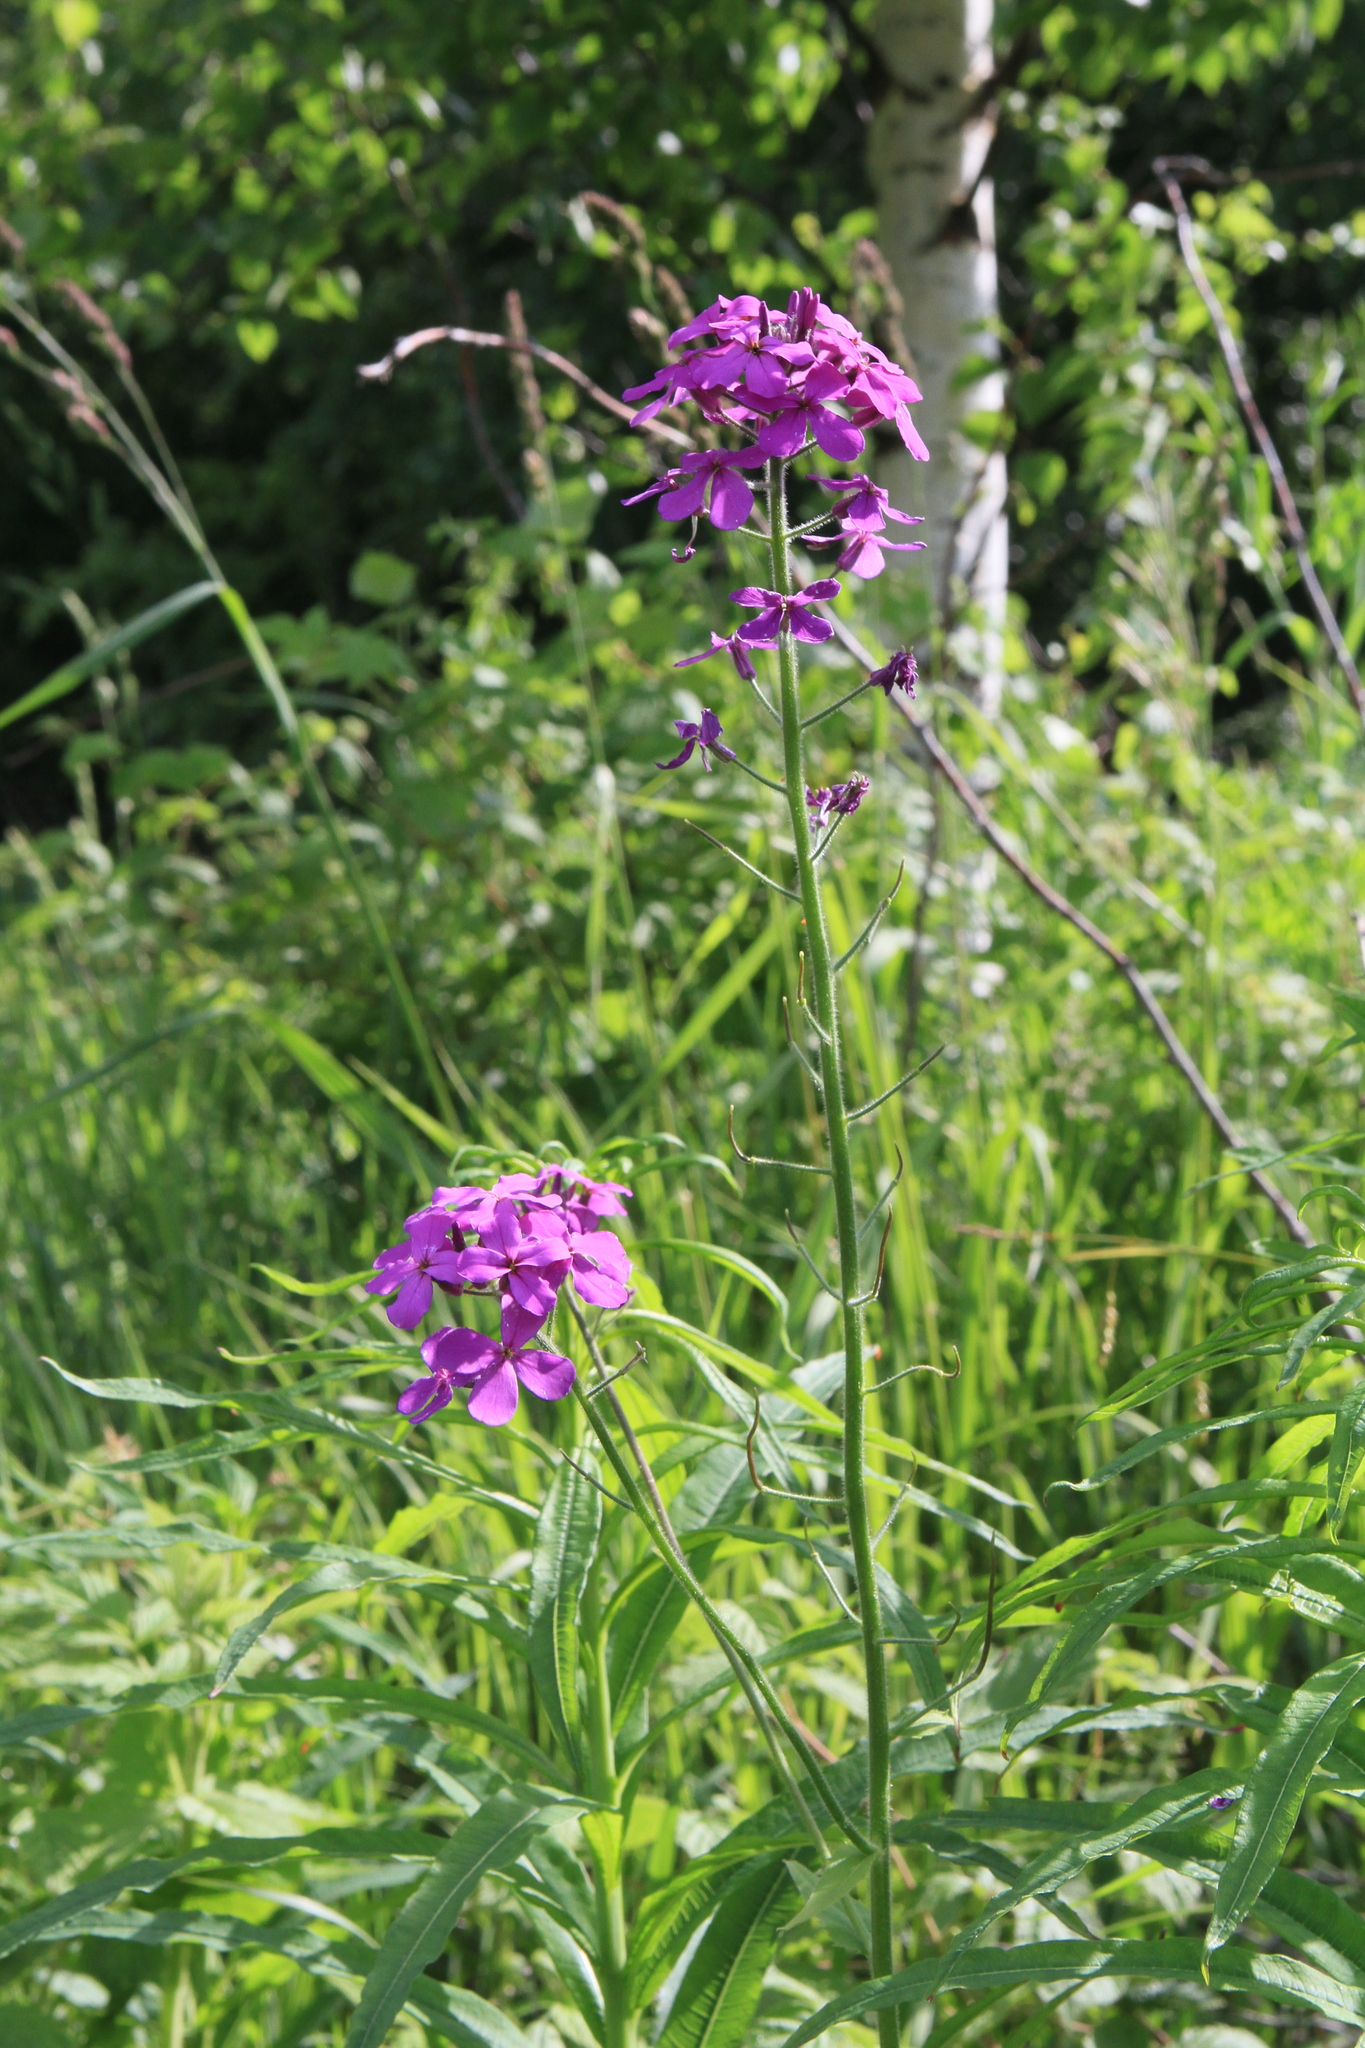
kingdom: Plantae
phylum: Tracheophyta
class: Magnoliopsida
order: Brassicales
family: Brassicaceae
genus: Hesperis
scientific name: Hesperis sibirica
